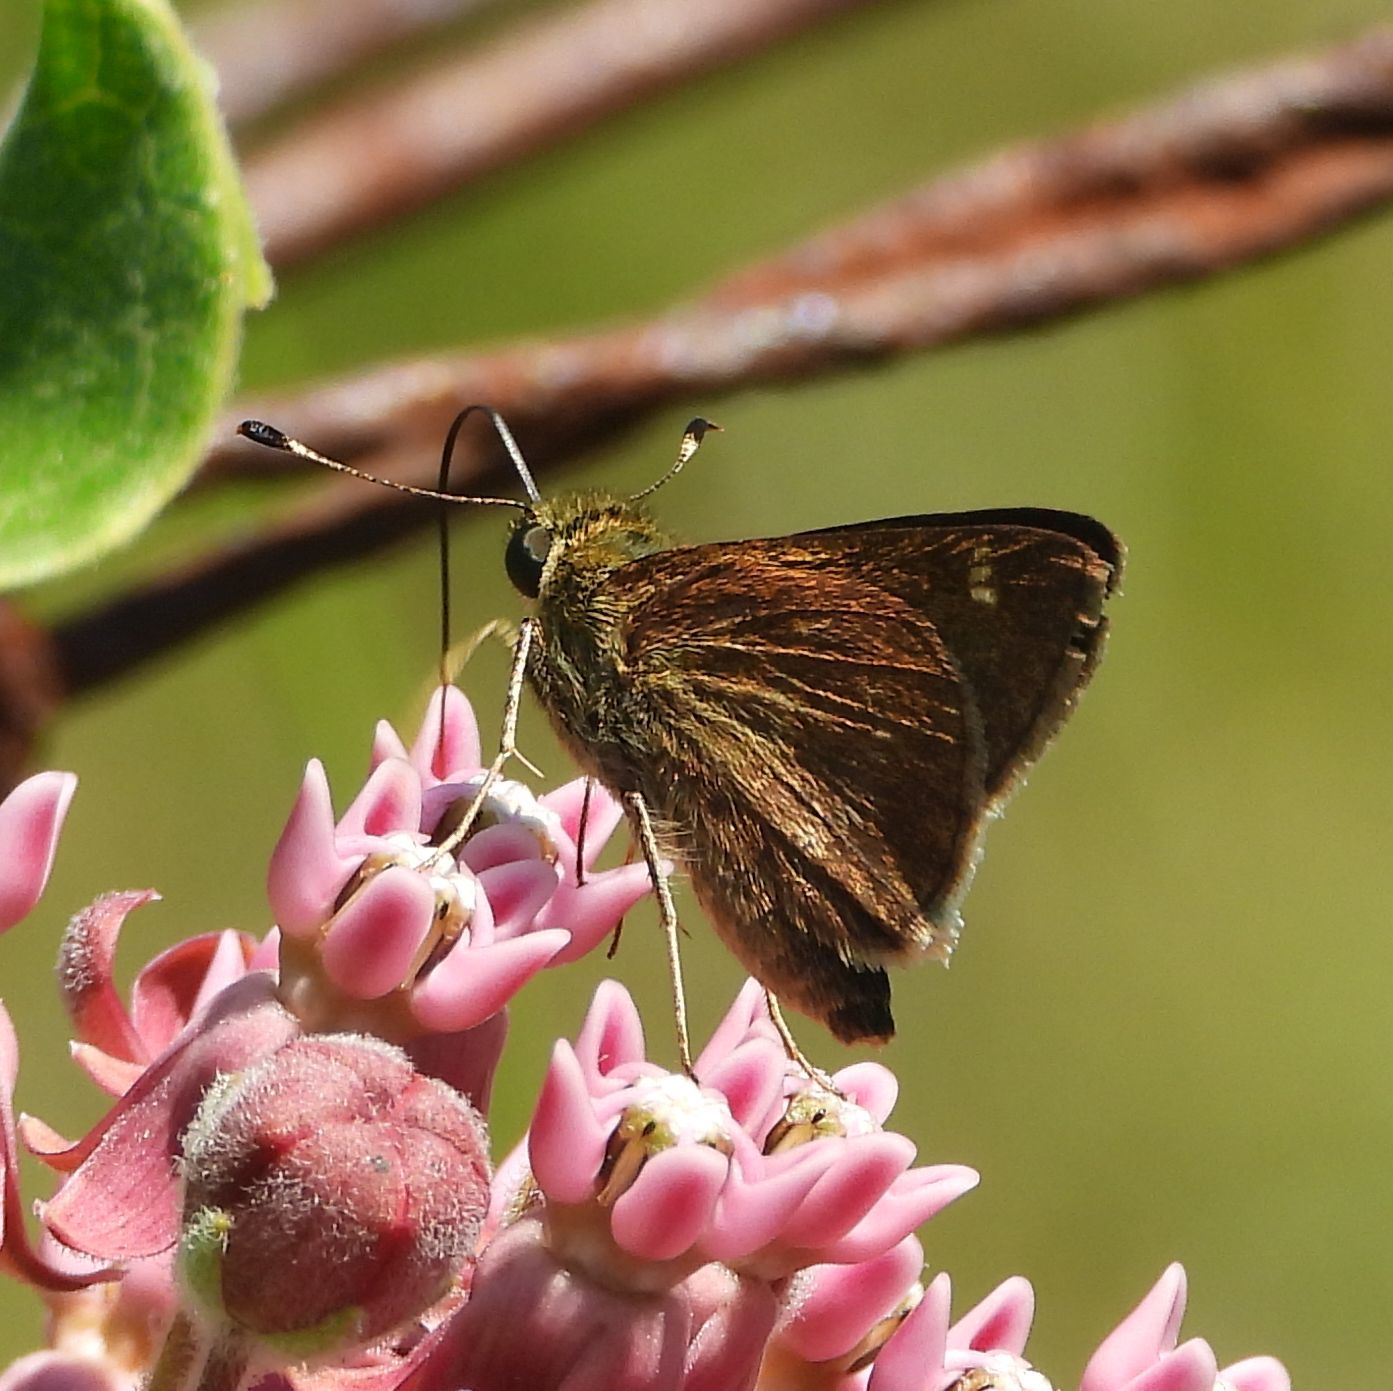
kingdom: Animalia
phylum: Arthropoda
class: Insecta
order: Lepidoptera
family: Hesperiidae
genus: Vernia
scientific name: Vernia verna
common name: Little glassywing
